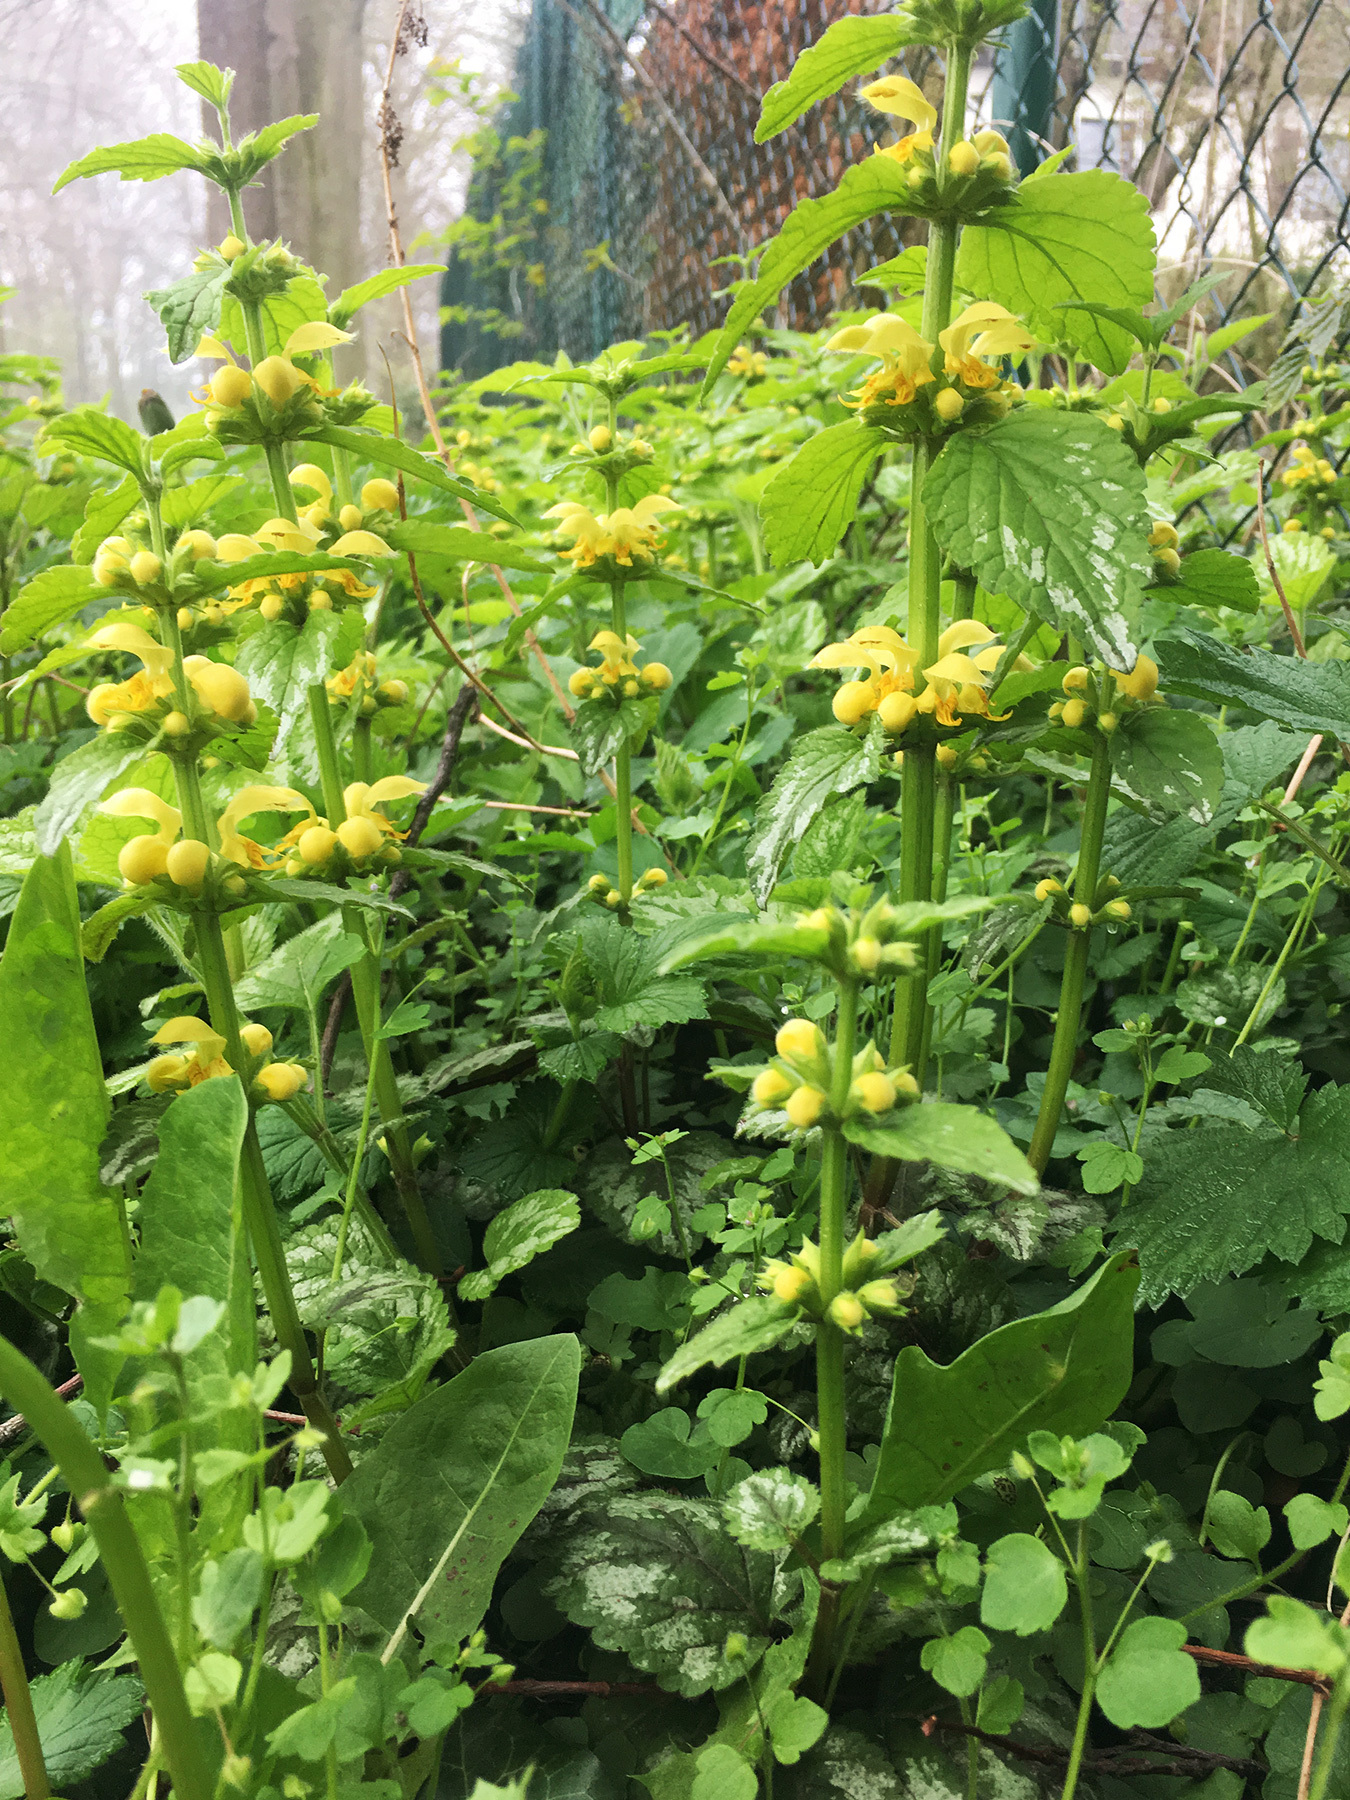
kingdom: Plantae
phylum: Tracheophyta
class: Magnoliopsida
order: Lamiales
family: Lamiaceae
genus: Lamium
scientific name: Lamium galeobdolon
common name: Yellow archangel
